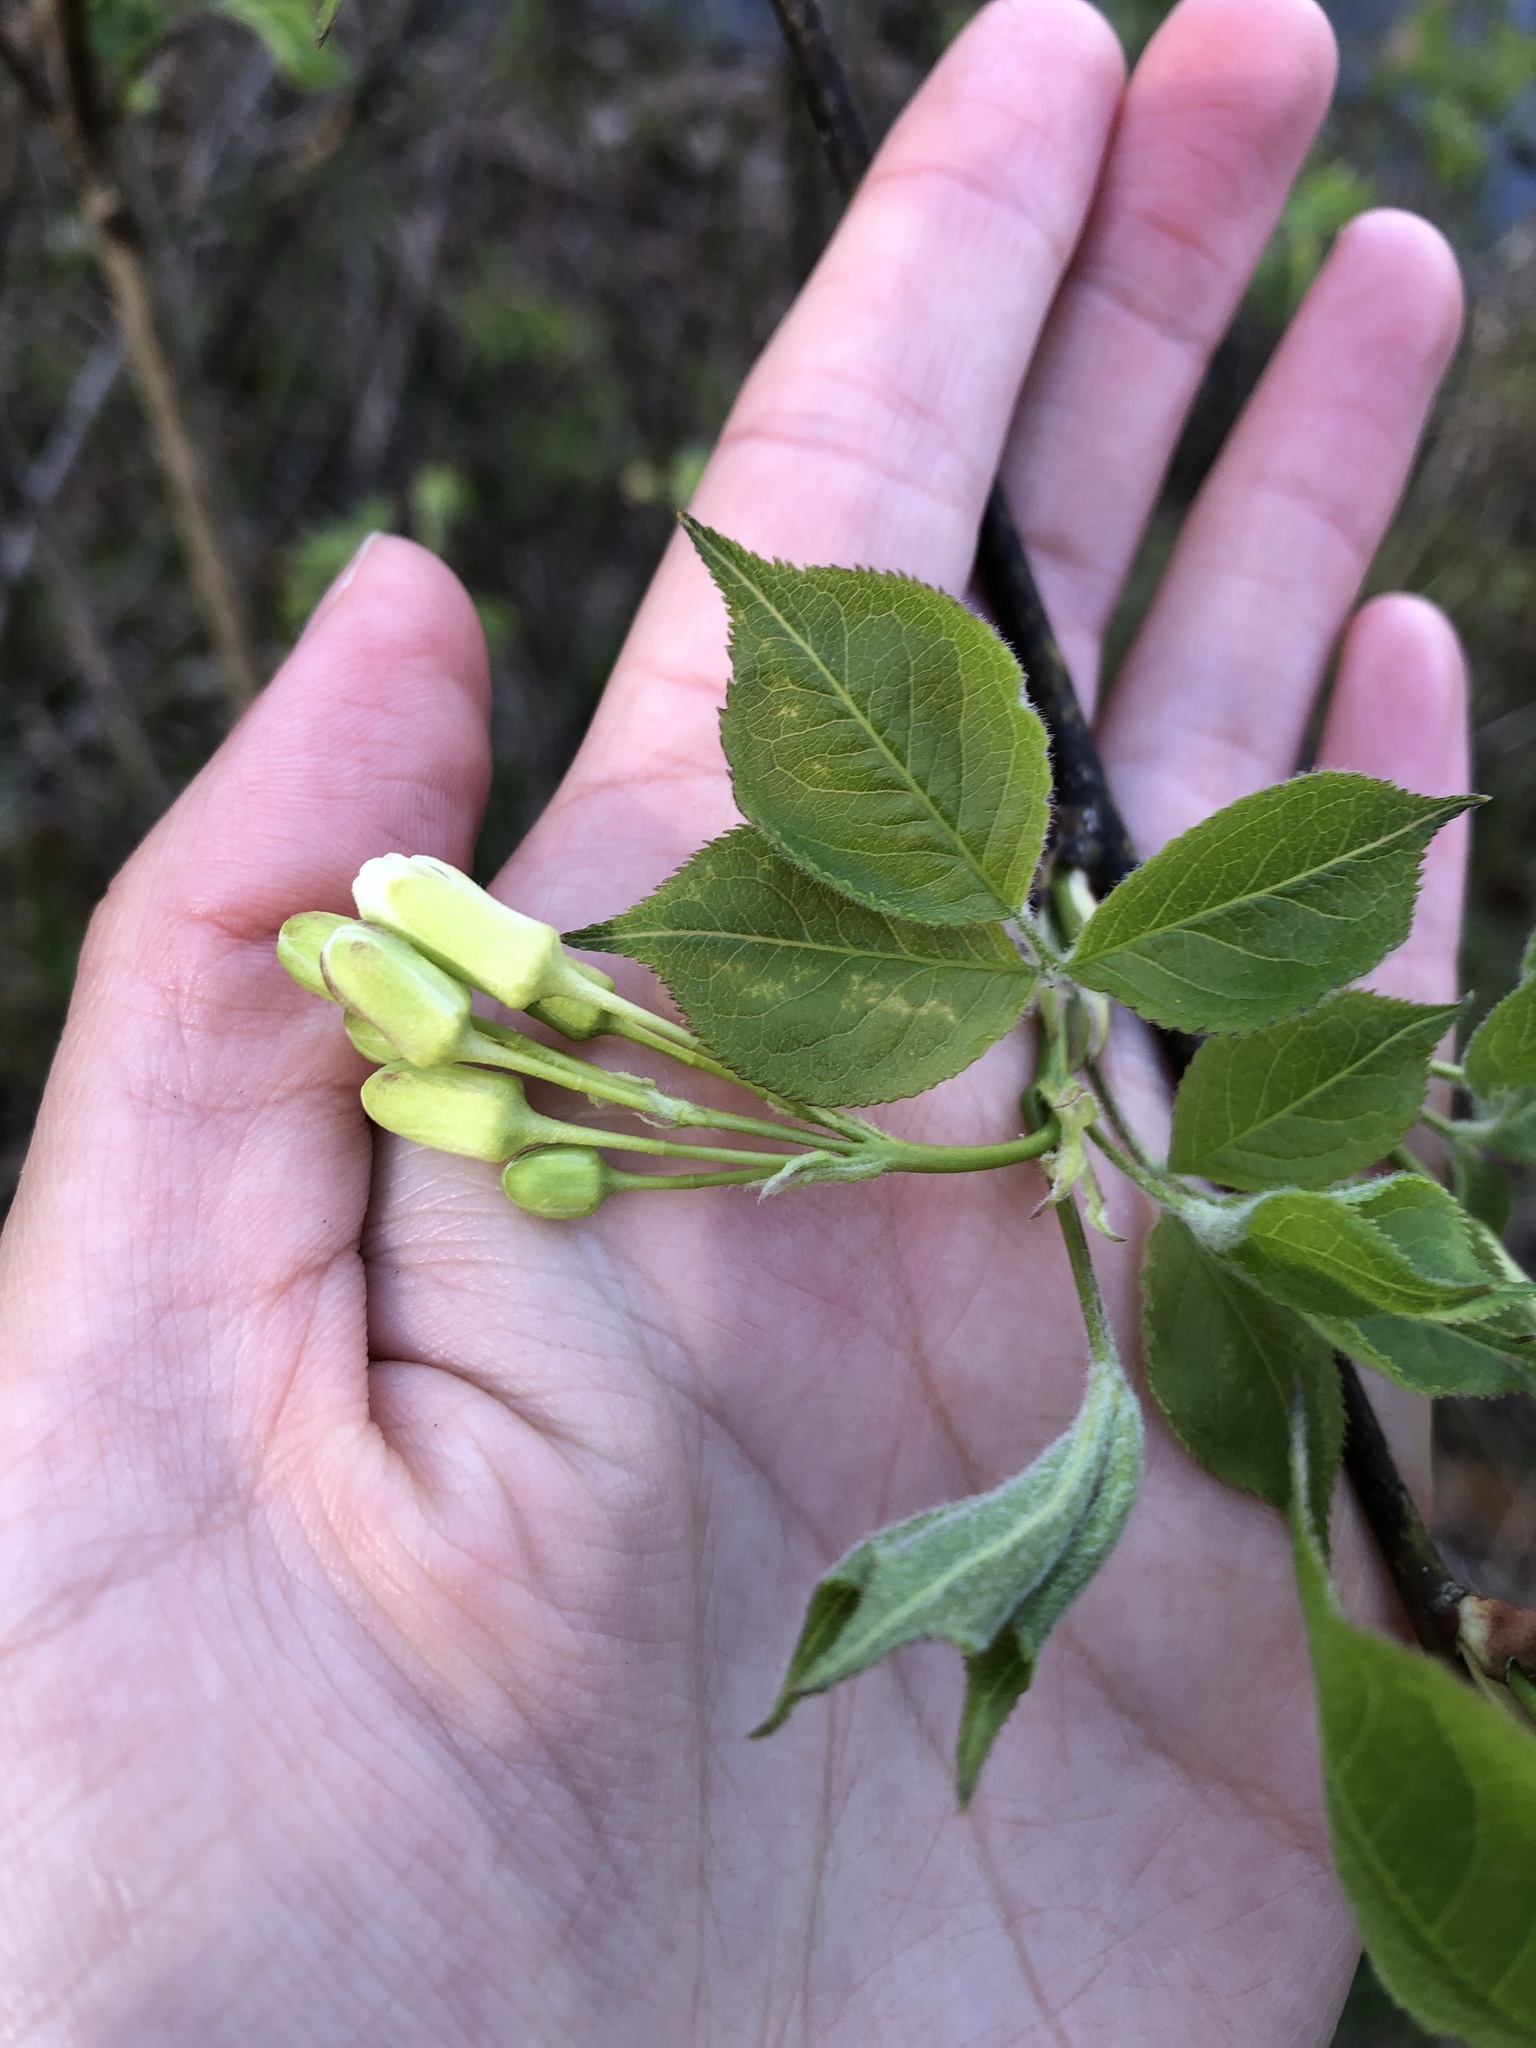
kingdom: Plantae
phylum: Tracheophyta
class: Magnoliopsida
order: Crossosomatales
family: Staphyleaceae
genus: Staphylea
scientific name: Staphylea trifolia
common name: American bladdernut
